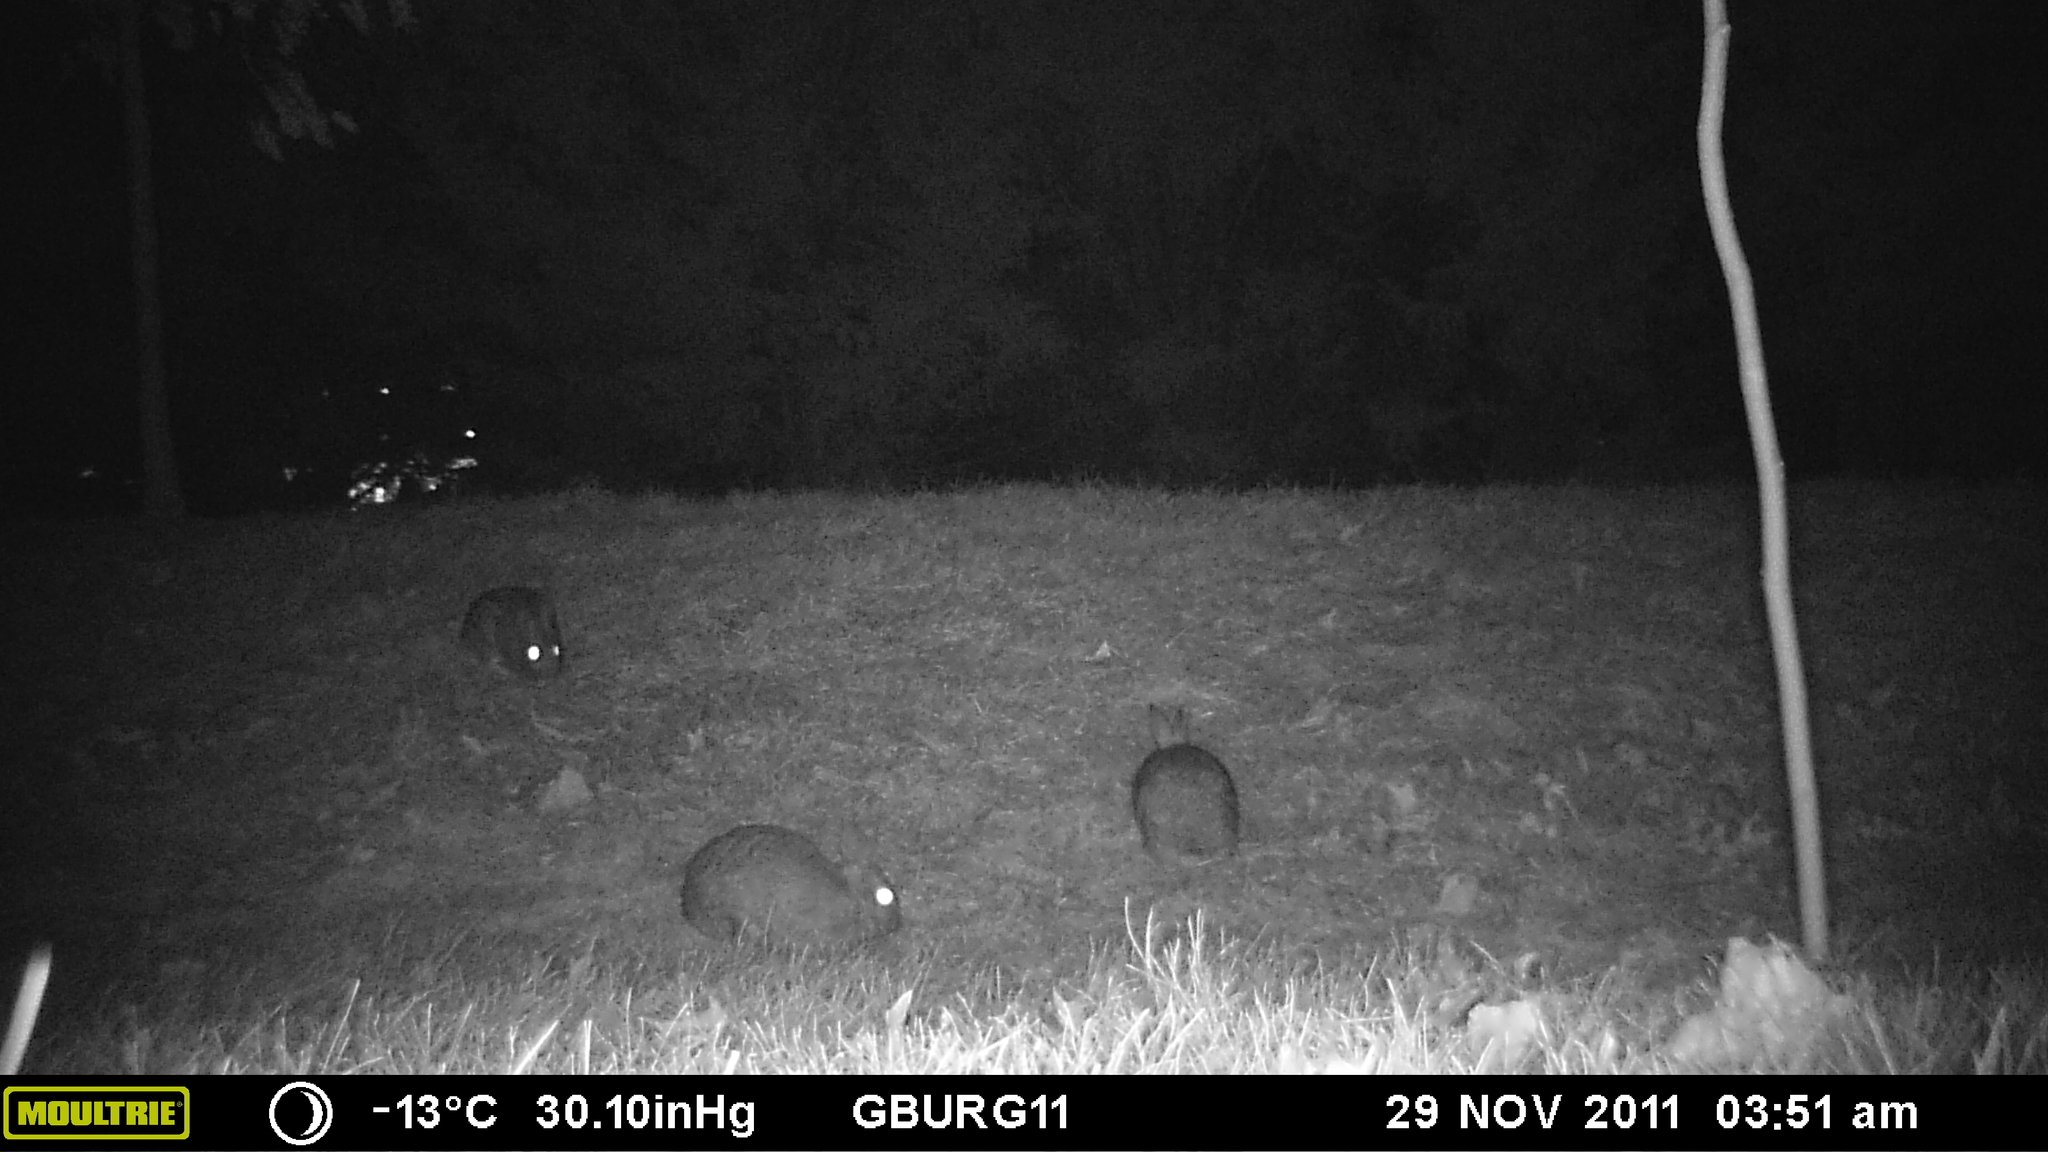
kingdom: Animalia
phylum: Chordata
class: Mammalia
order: Lagomorpha
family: Leporidae
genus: Sylvilagus
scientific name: Sylvilagus floridanus
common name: Eastern cottontail
